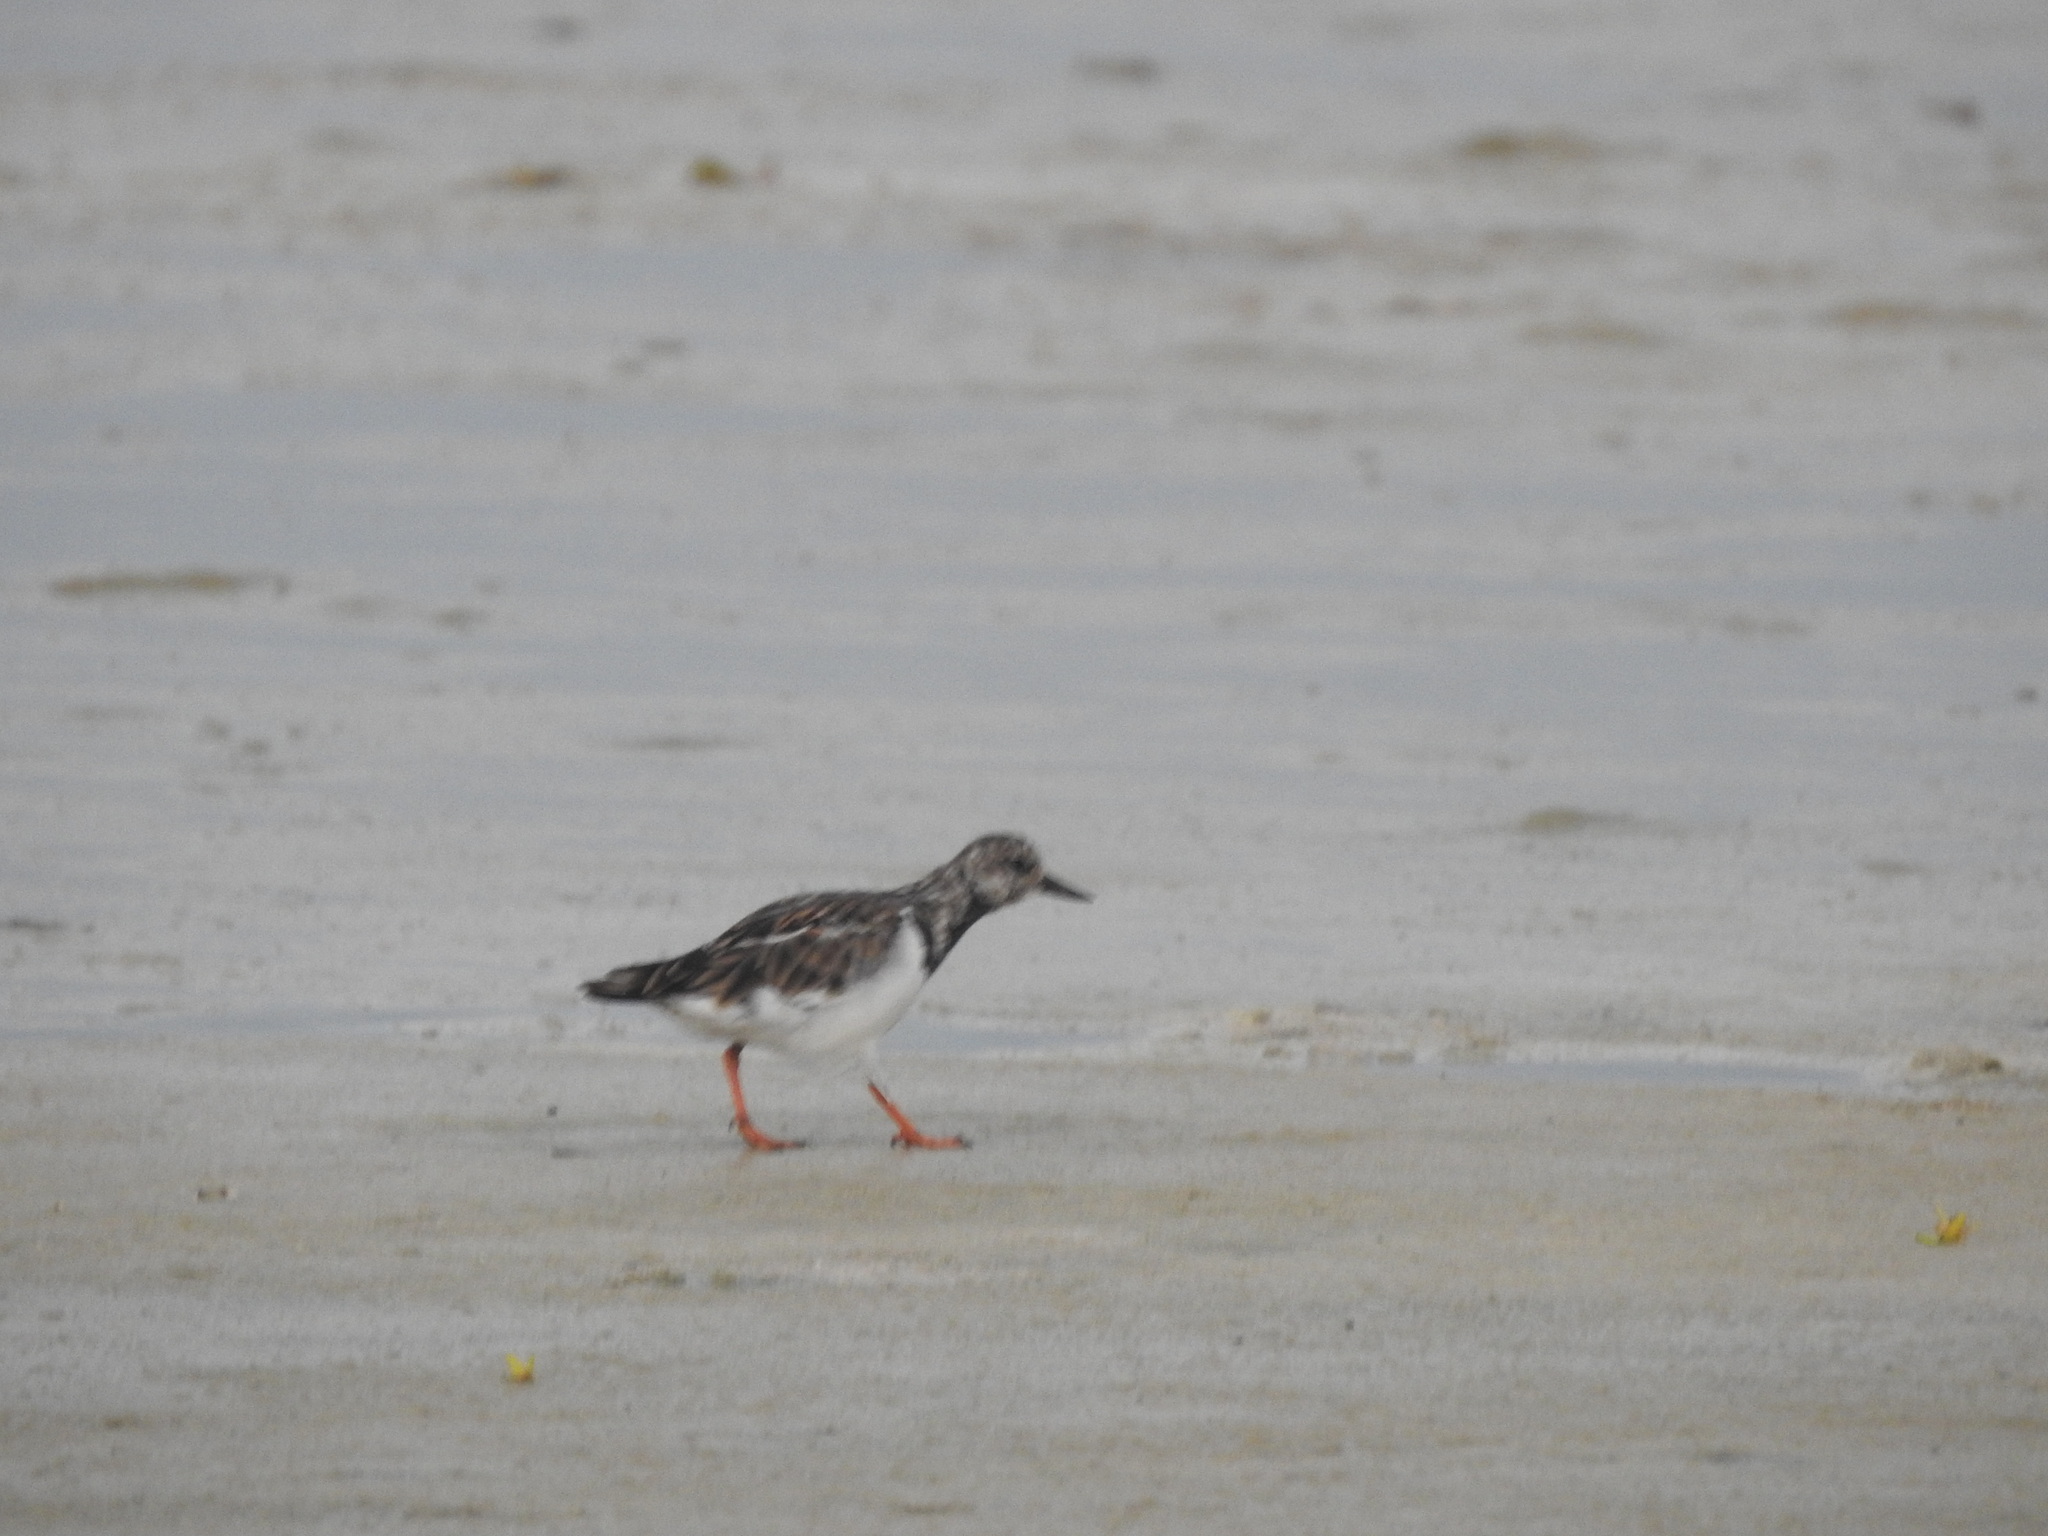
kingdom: Animalia
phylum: Chordata
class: Aves
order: Charadriiformes
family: Scolopacidae
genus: Arenaria
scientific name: Arenaria interpres
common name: Ruddy turnstone
